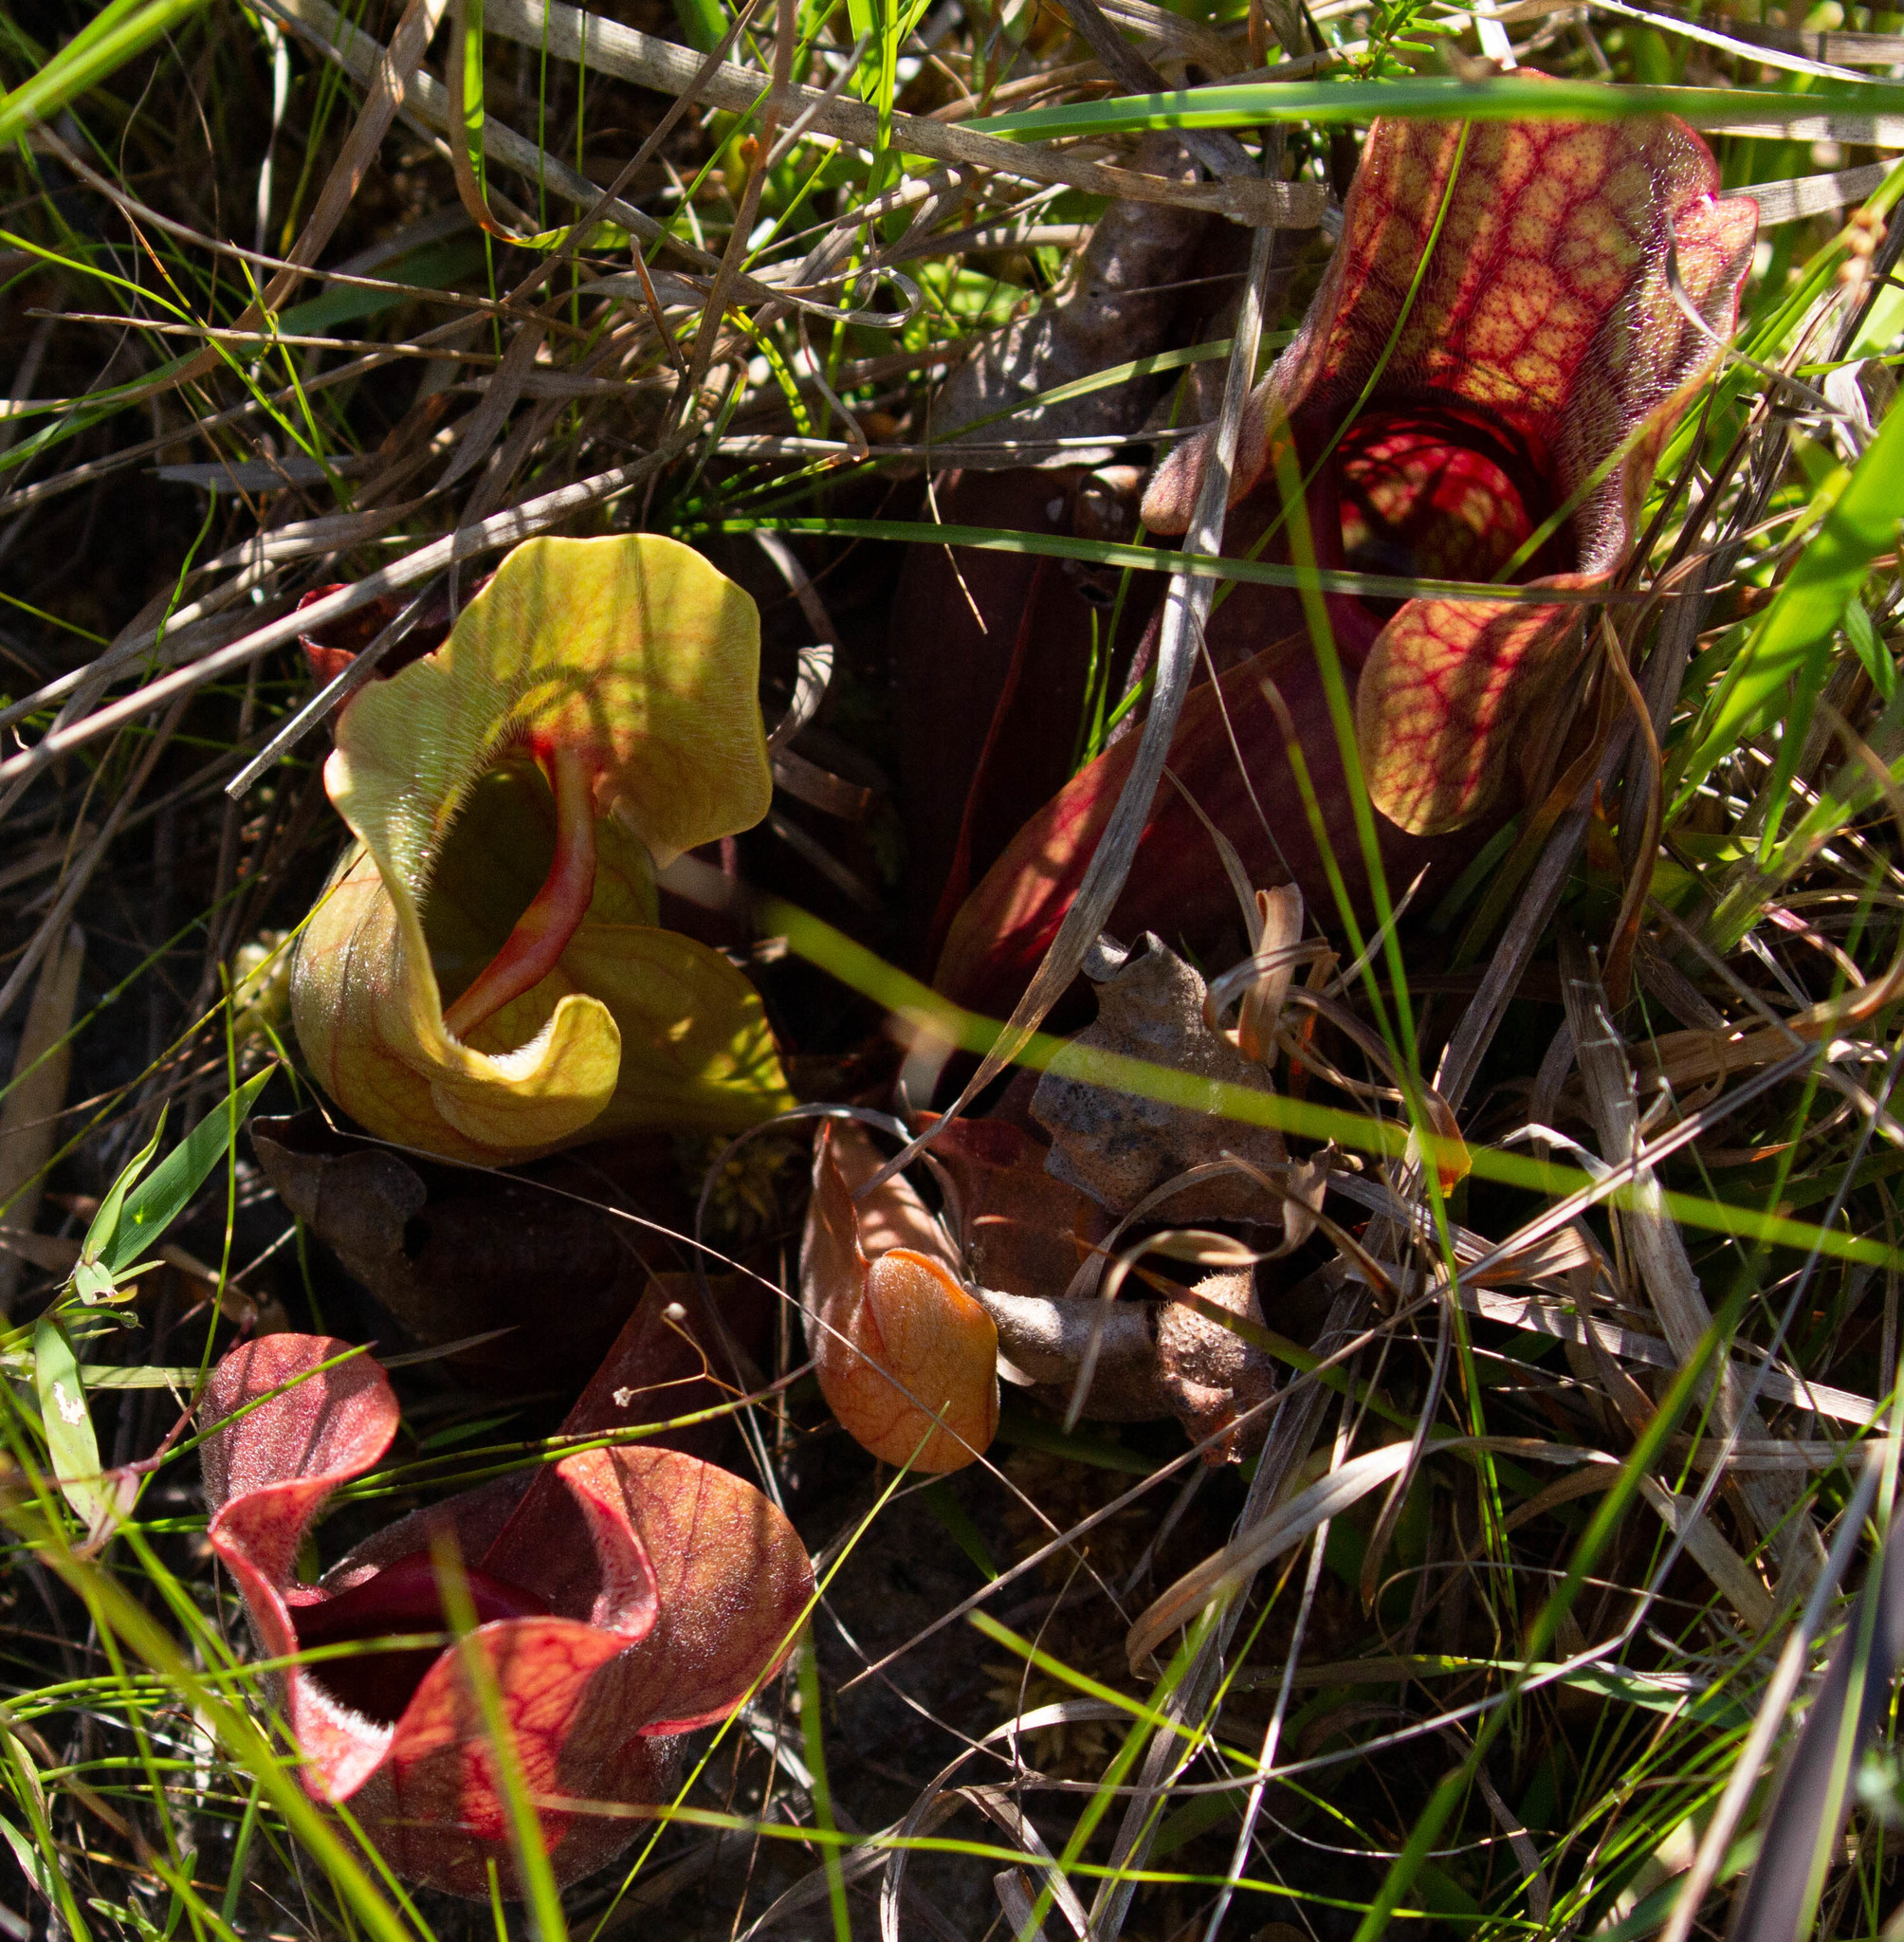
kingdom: Plantae
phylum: Tracheophyta
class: Magnoliopsida
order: Ericales
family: Sarraceniaceae
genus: Sarracenia
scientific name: Sarracenia rosea
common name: Pink pitcherplant
